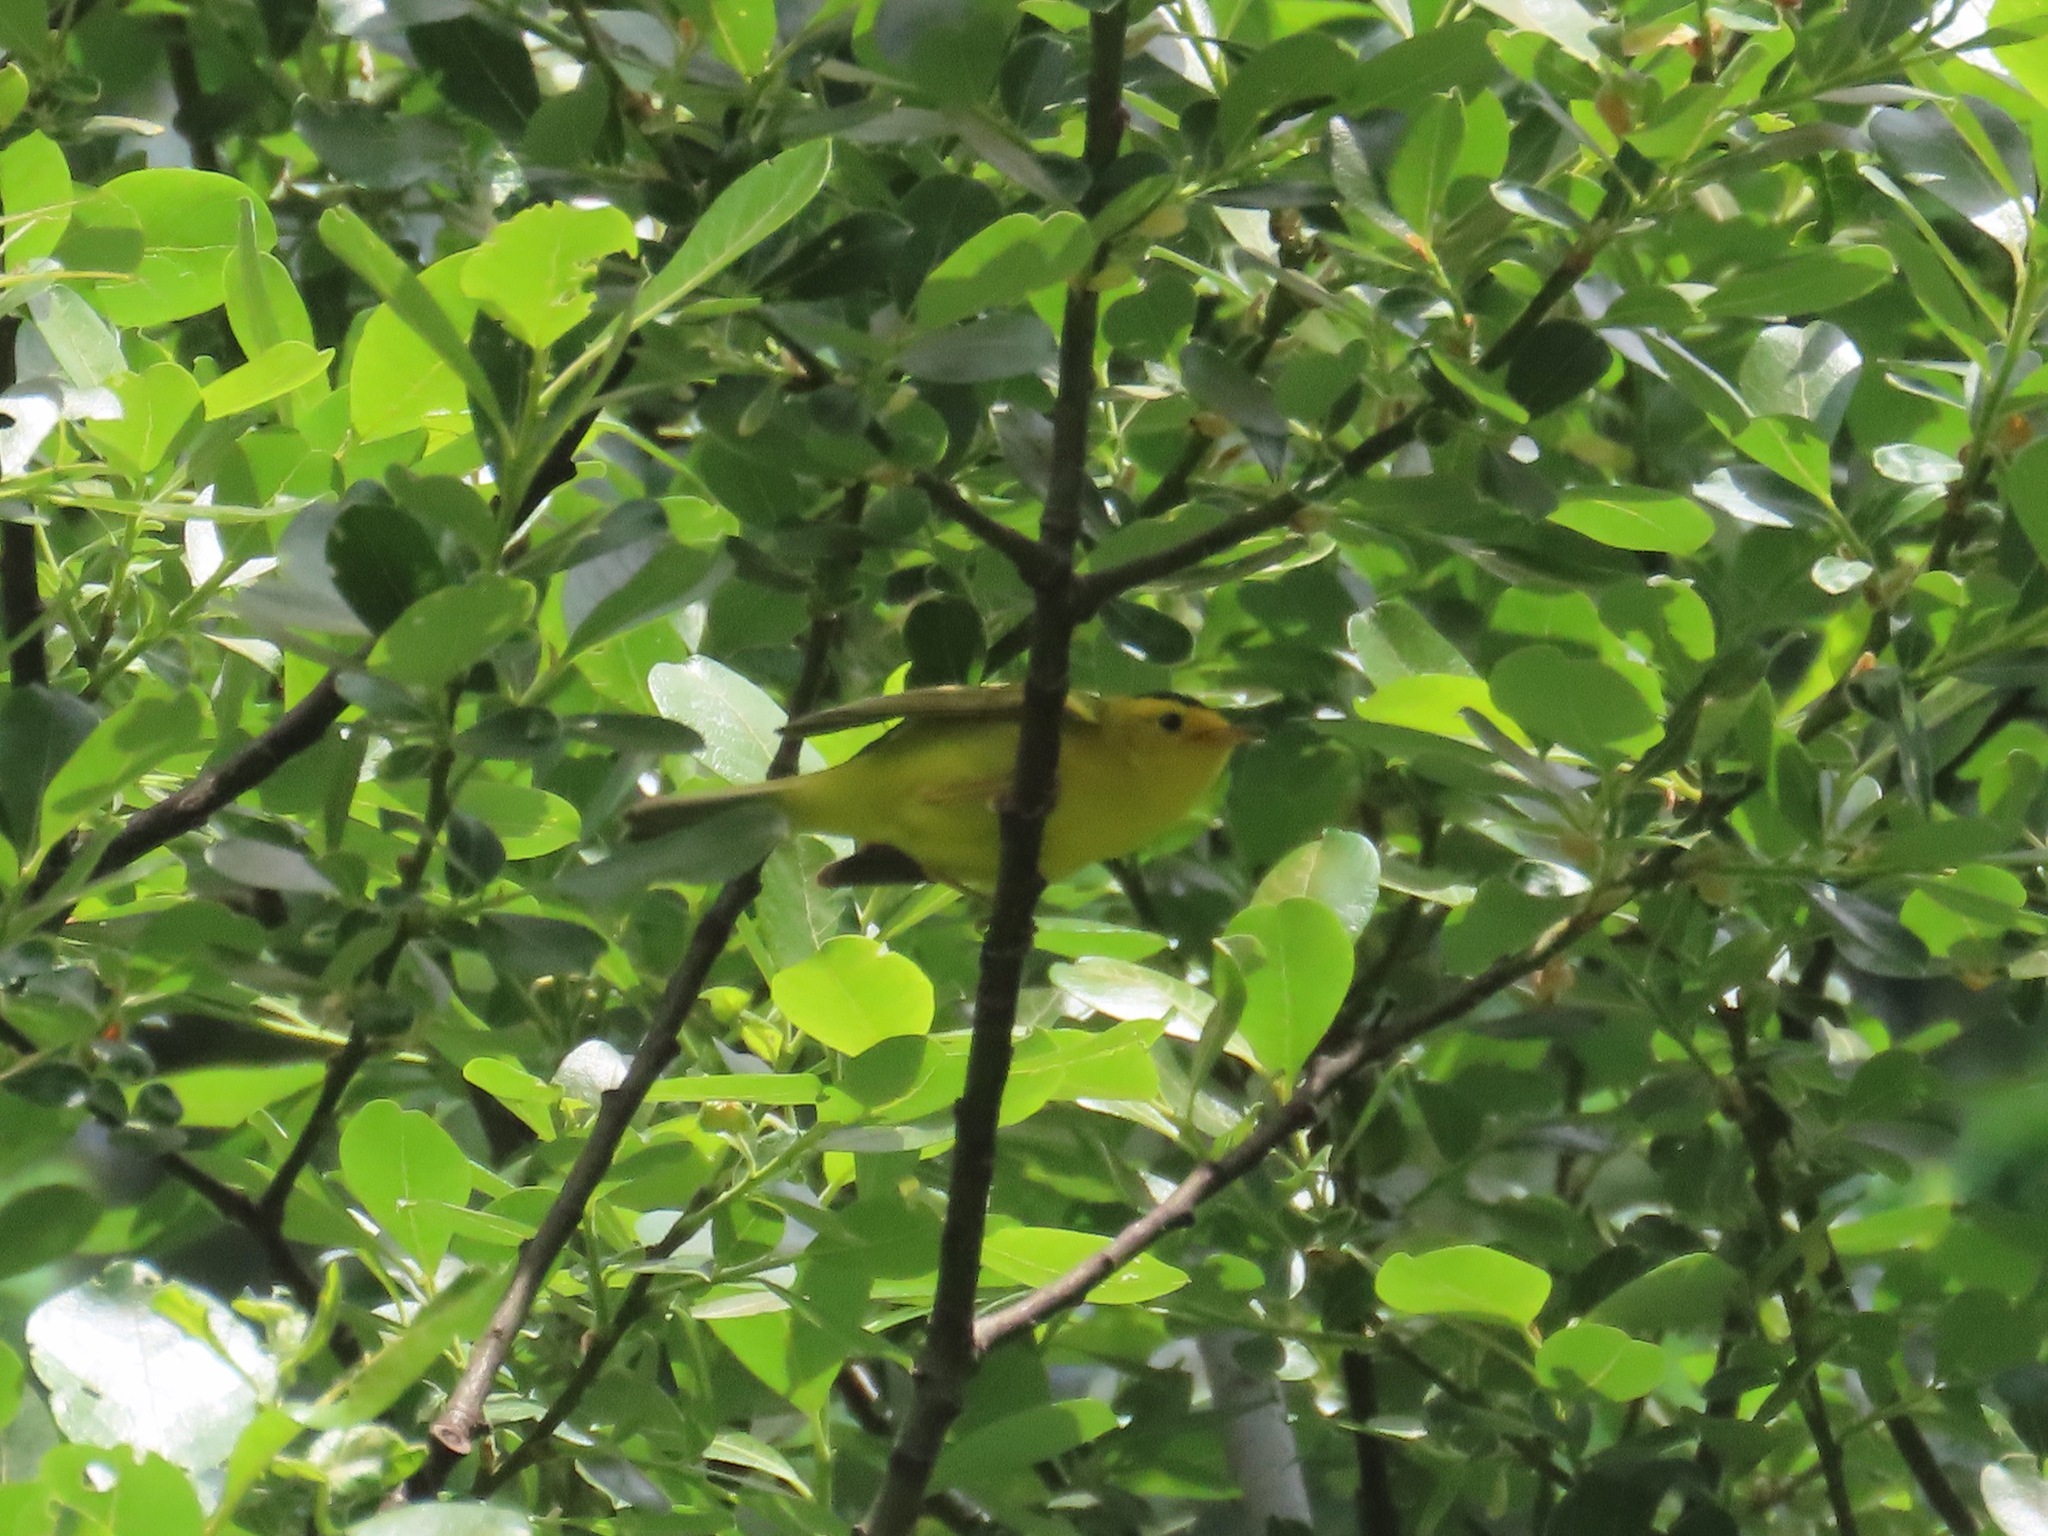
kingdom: Animalia
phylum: Chordata
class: Aves
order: Passeriformes
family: Parulidae
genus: Cardellina
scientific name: Cardellina pusilla
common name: Wilson's warbler
